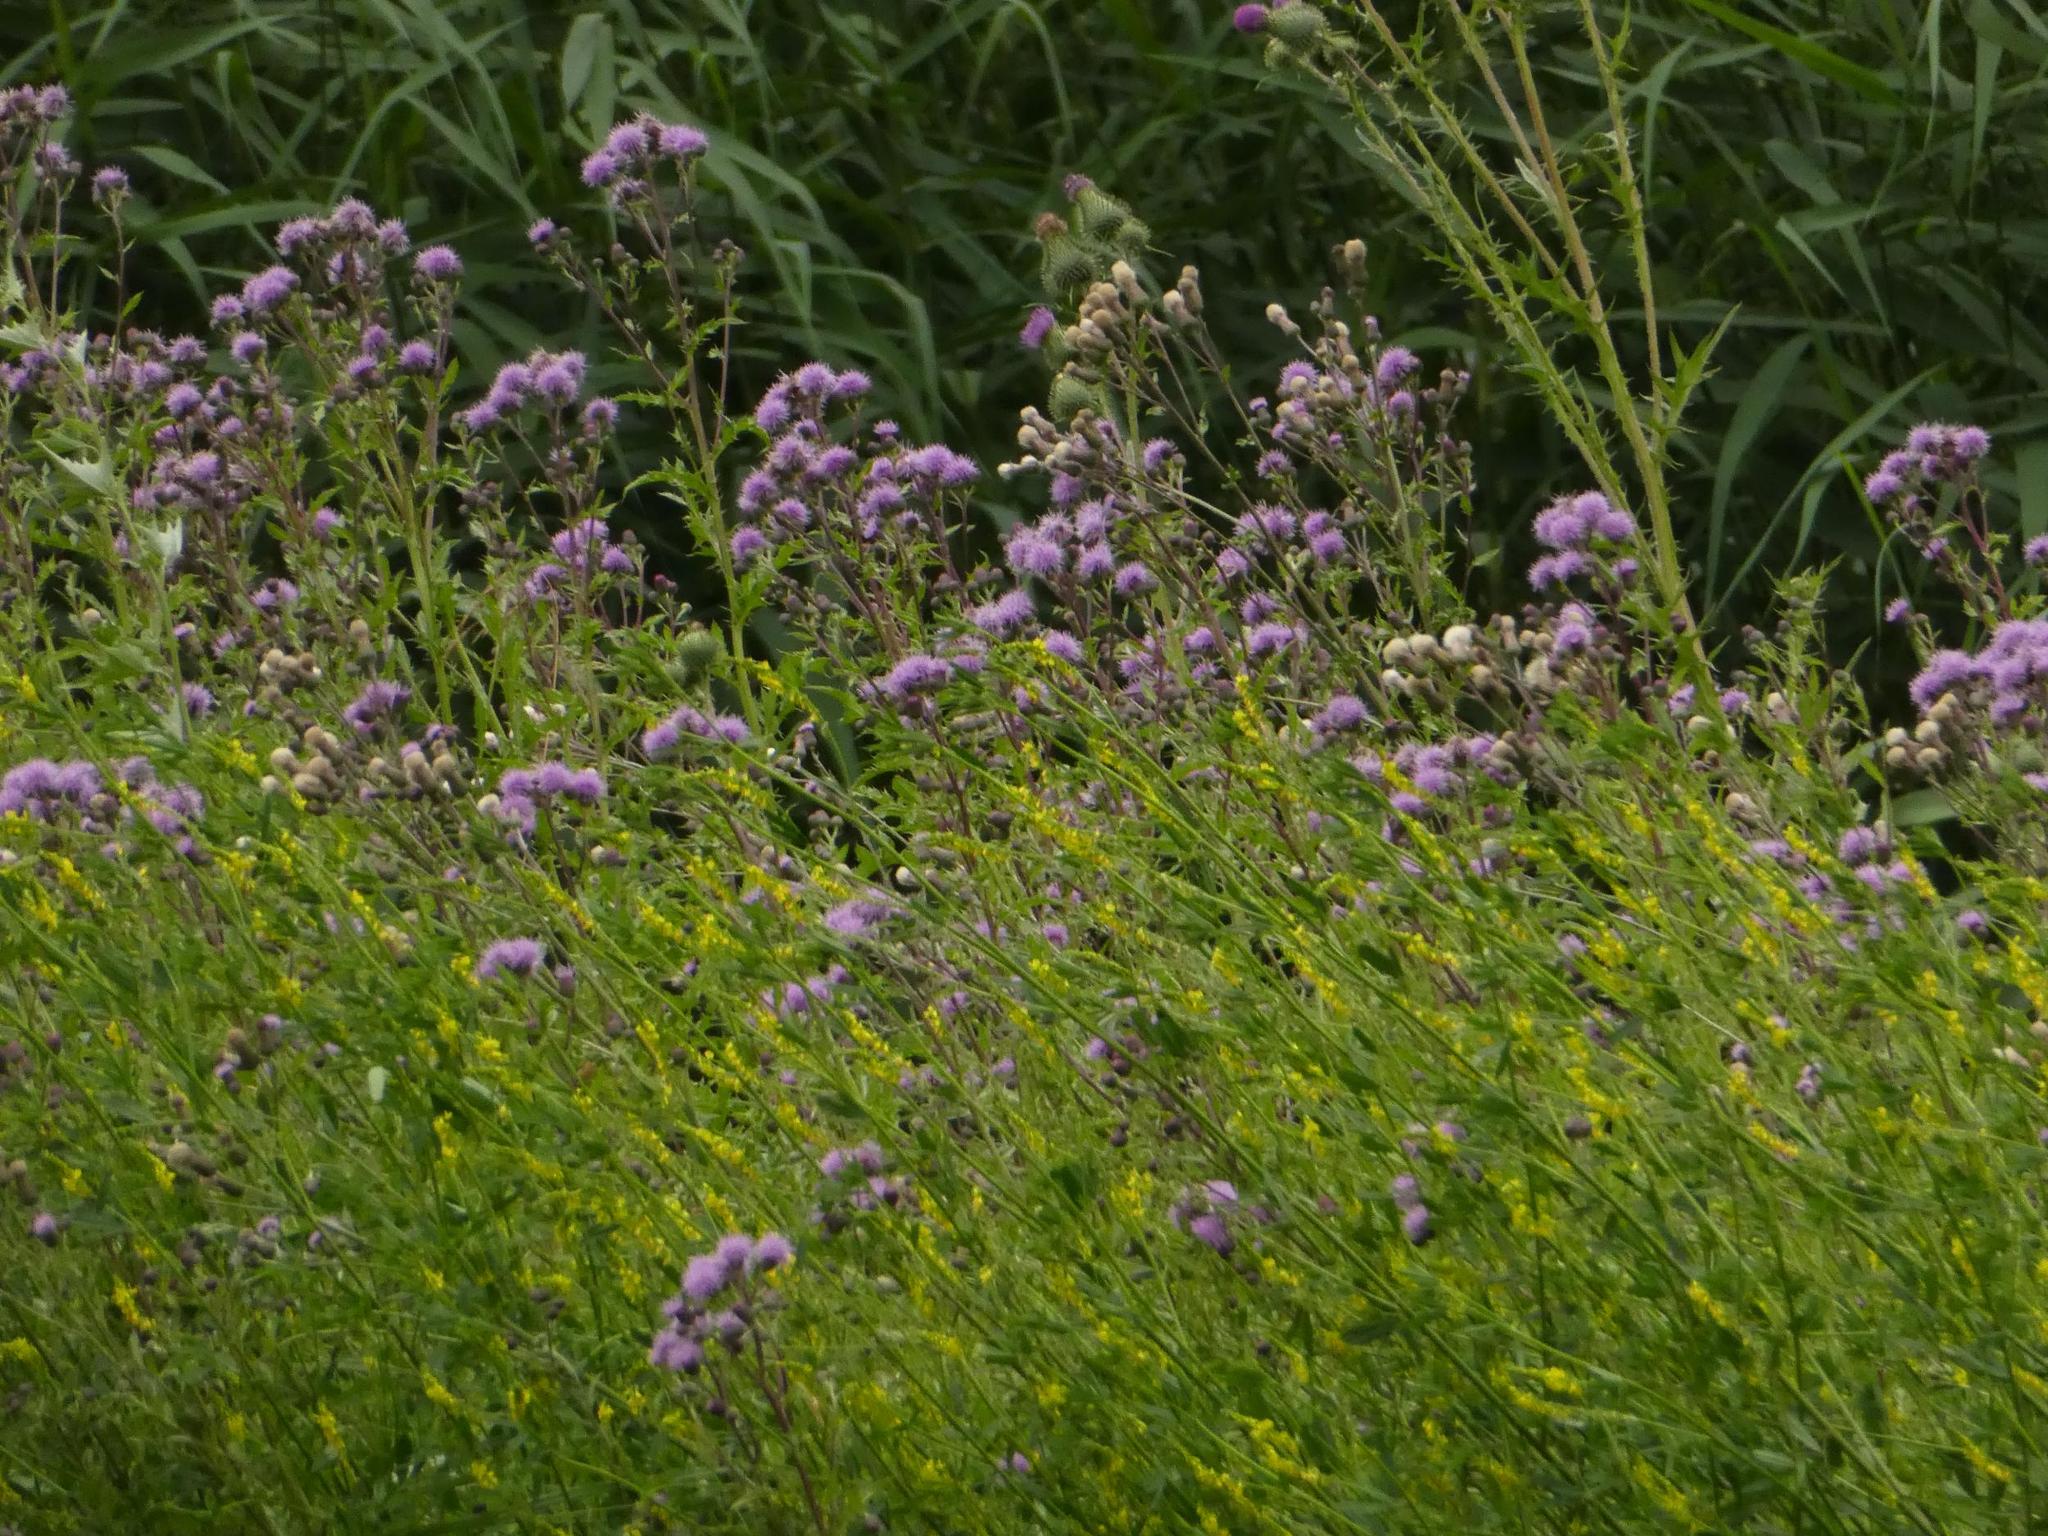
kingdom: Plantae
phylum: Tracheophyta
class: Magnoliopsida
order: Asterales
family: Asteraceae
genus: Cirsium
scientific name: Cirsium arvense
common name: Creeping thistle
